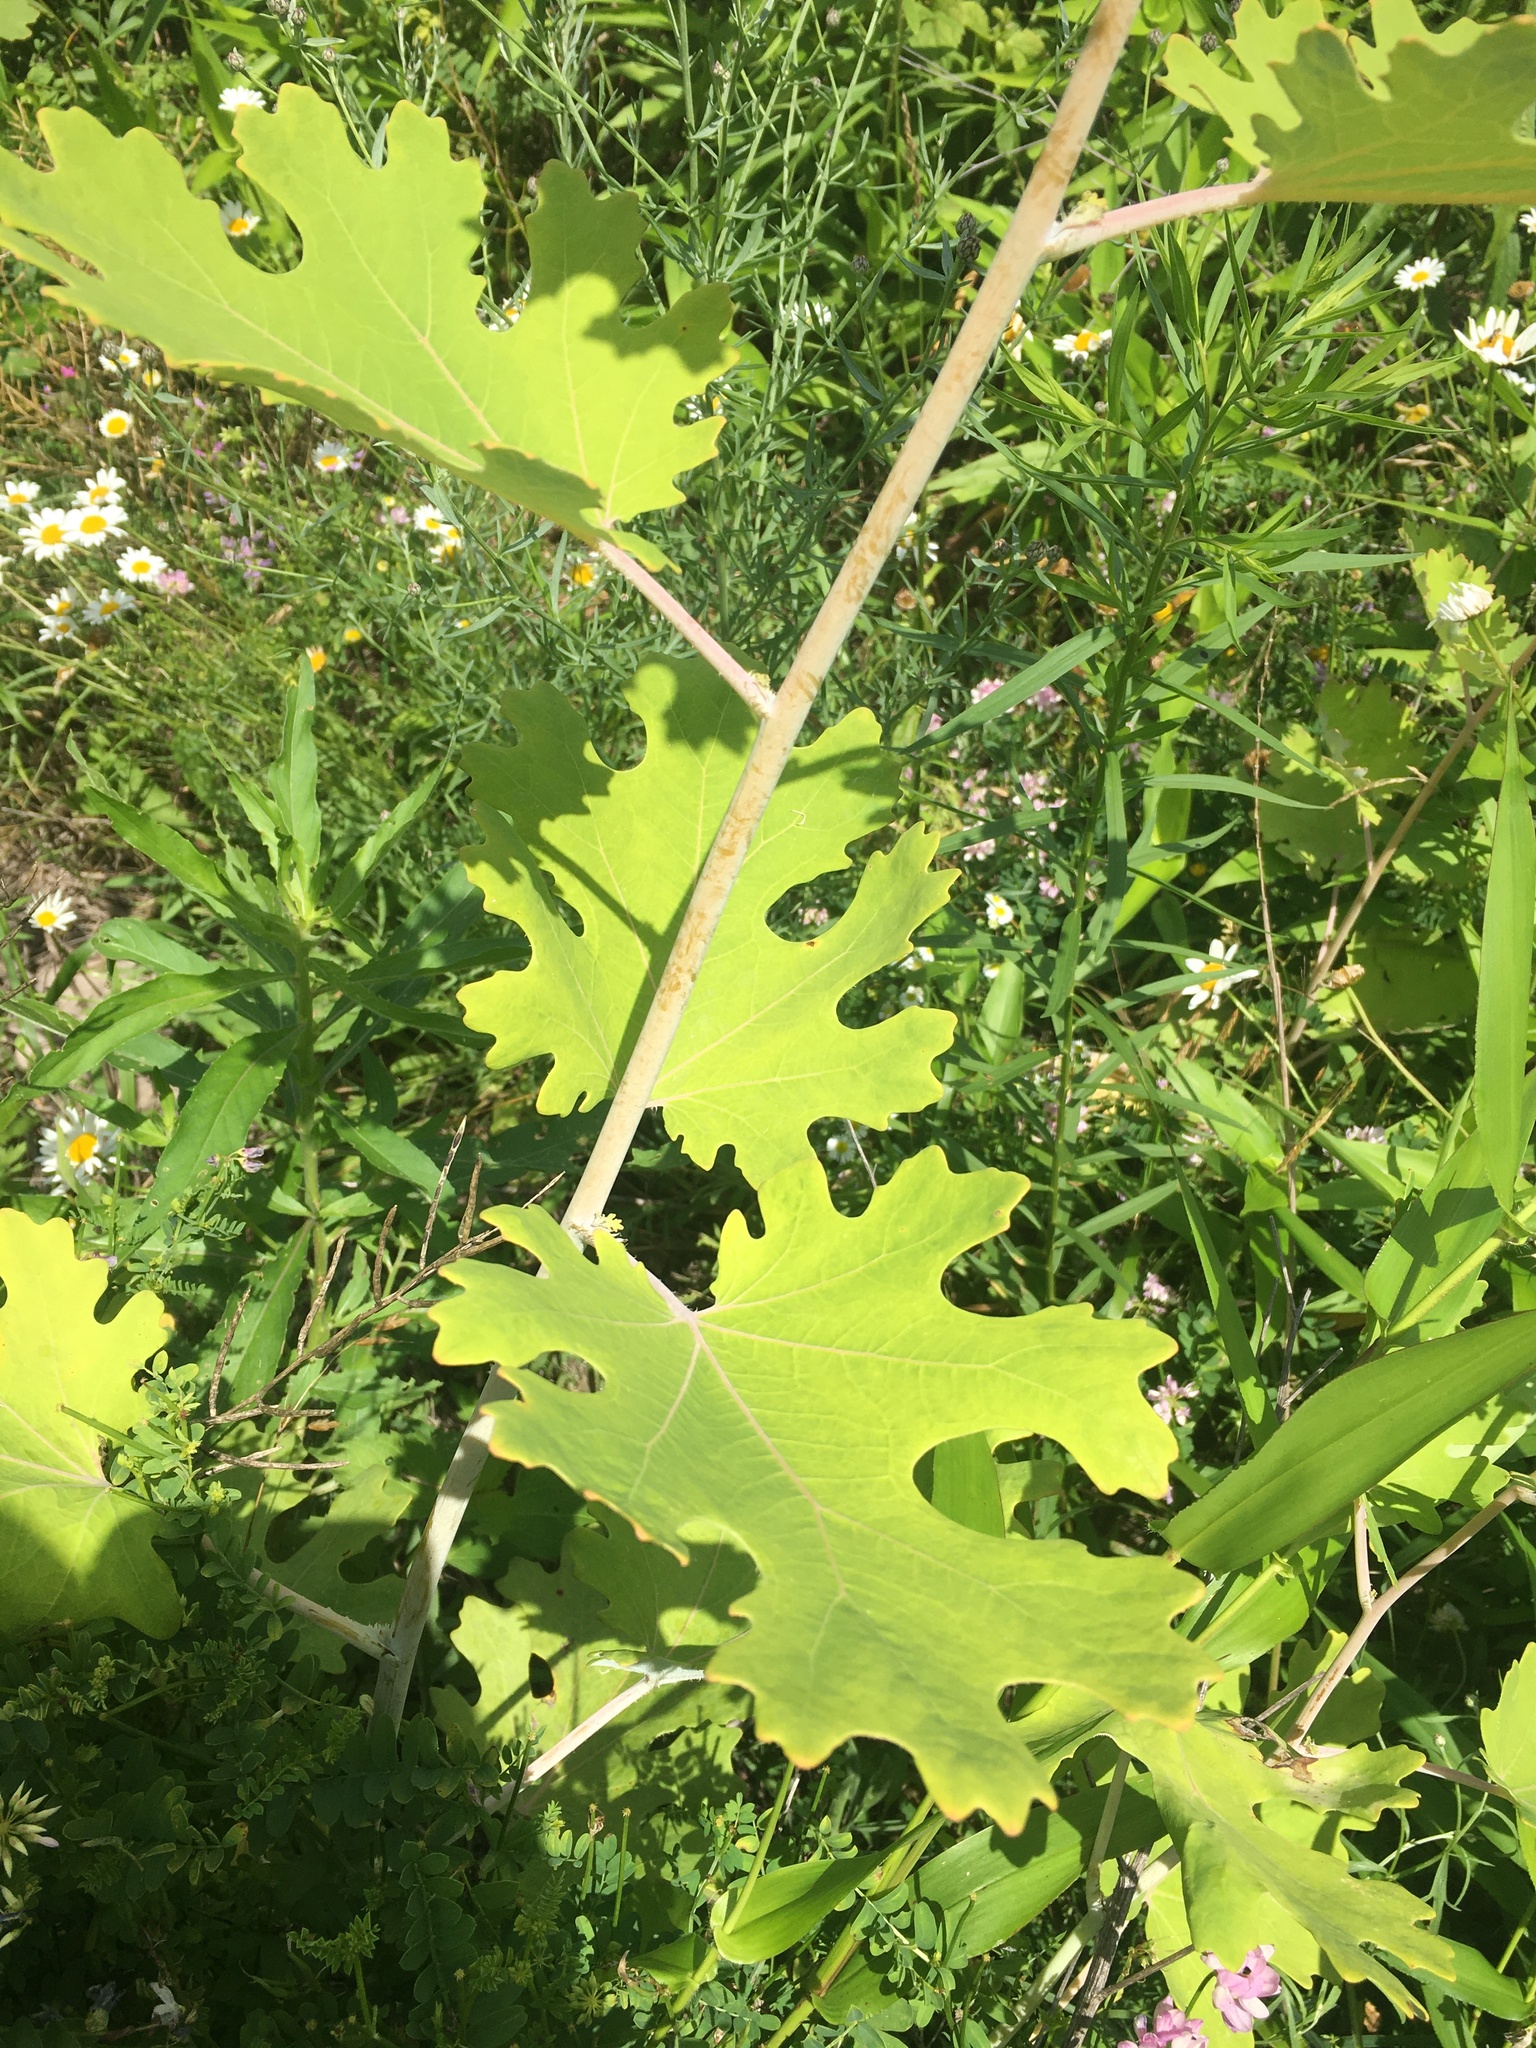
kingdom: Plantae
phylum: Tracheophyta
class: Magnoliopsida
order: Ranunculales
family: Papaveraceae
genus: Macleaya
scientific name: Macleaya cordata
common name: Plume poppy
